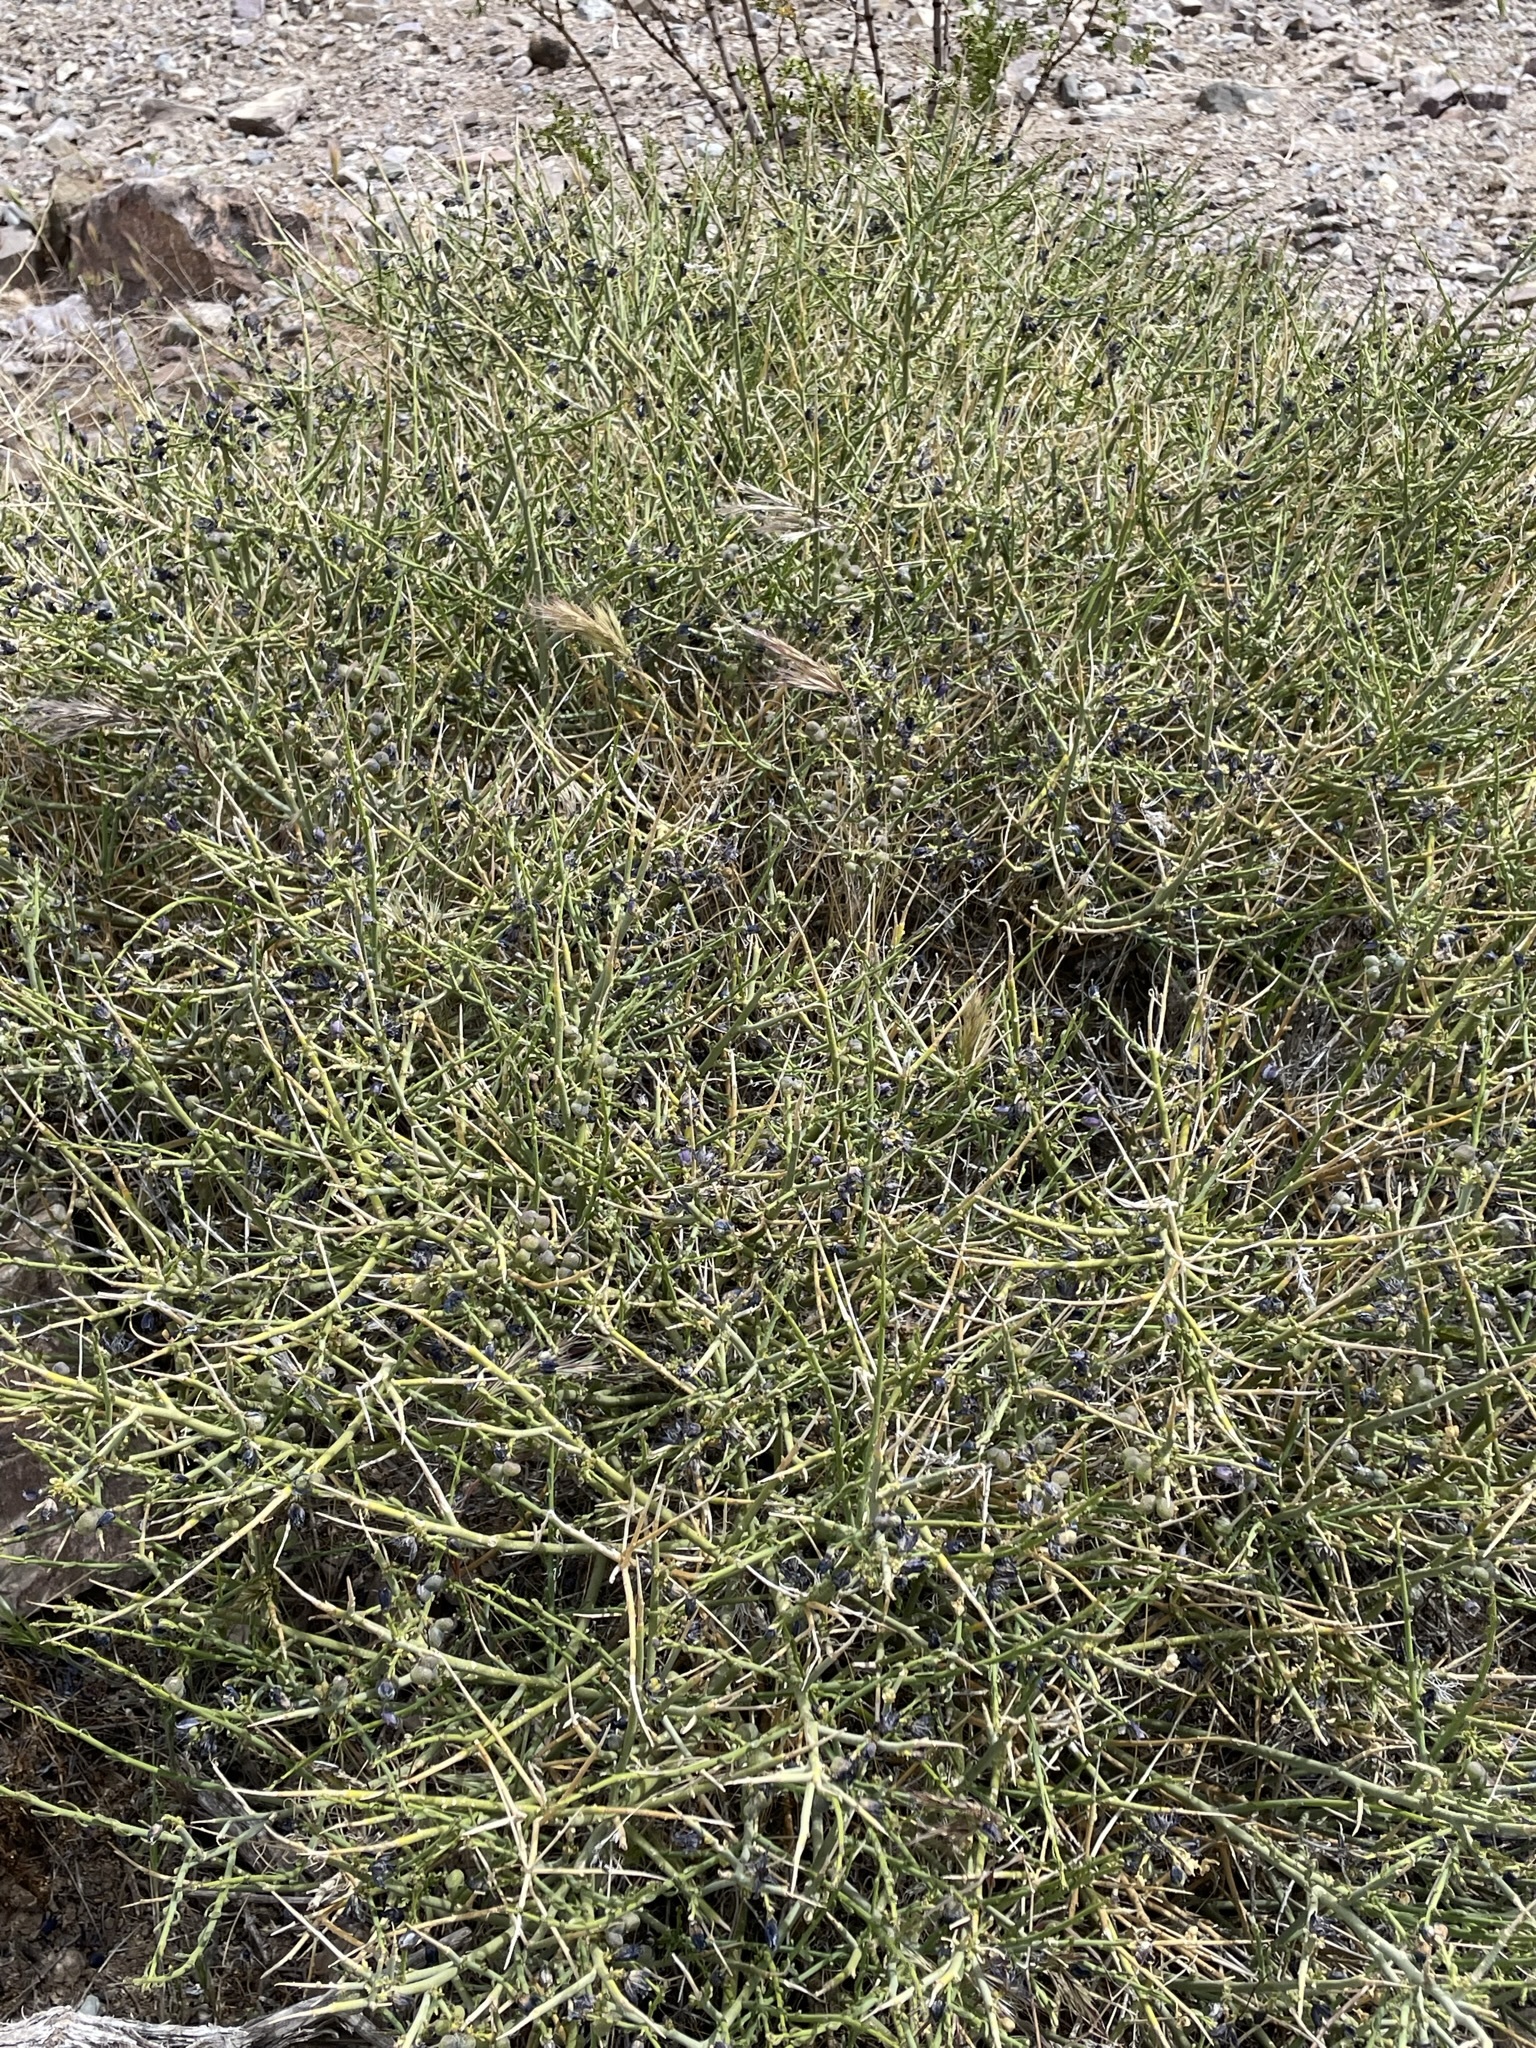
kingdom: Plantae
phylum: Tracheophyta
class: Magnoliopsida
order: Sapindales
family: Rutaceae
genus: Thamnosma
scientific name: Thamnosma montana
